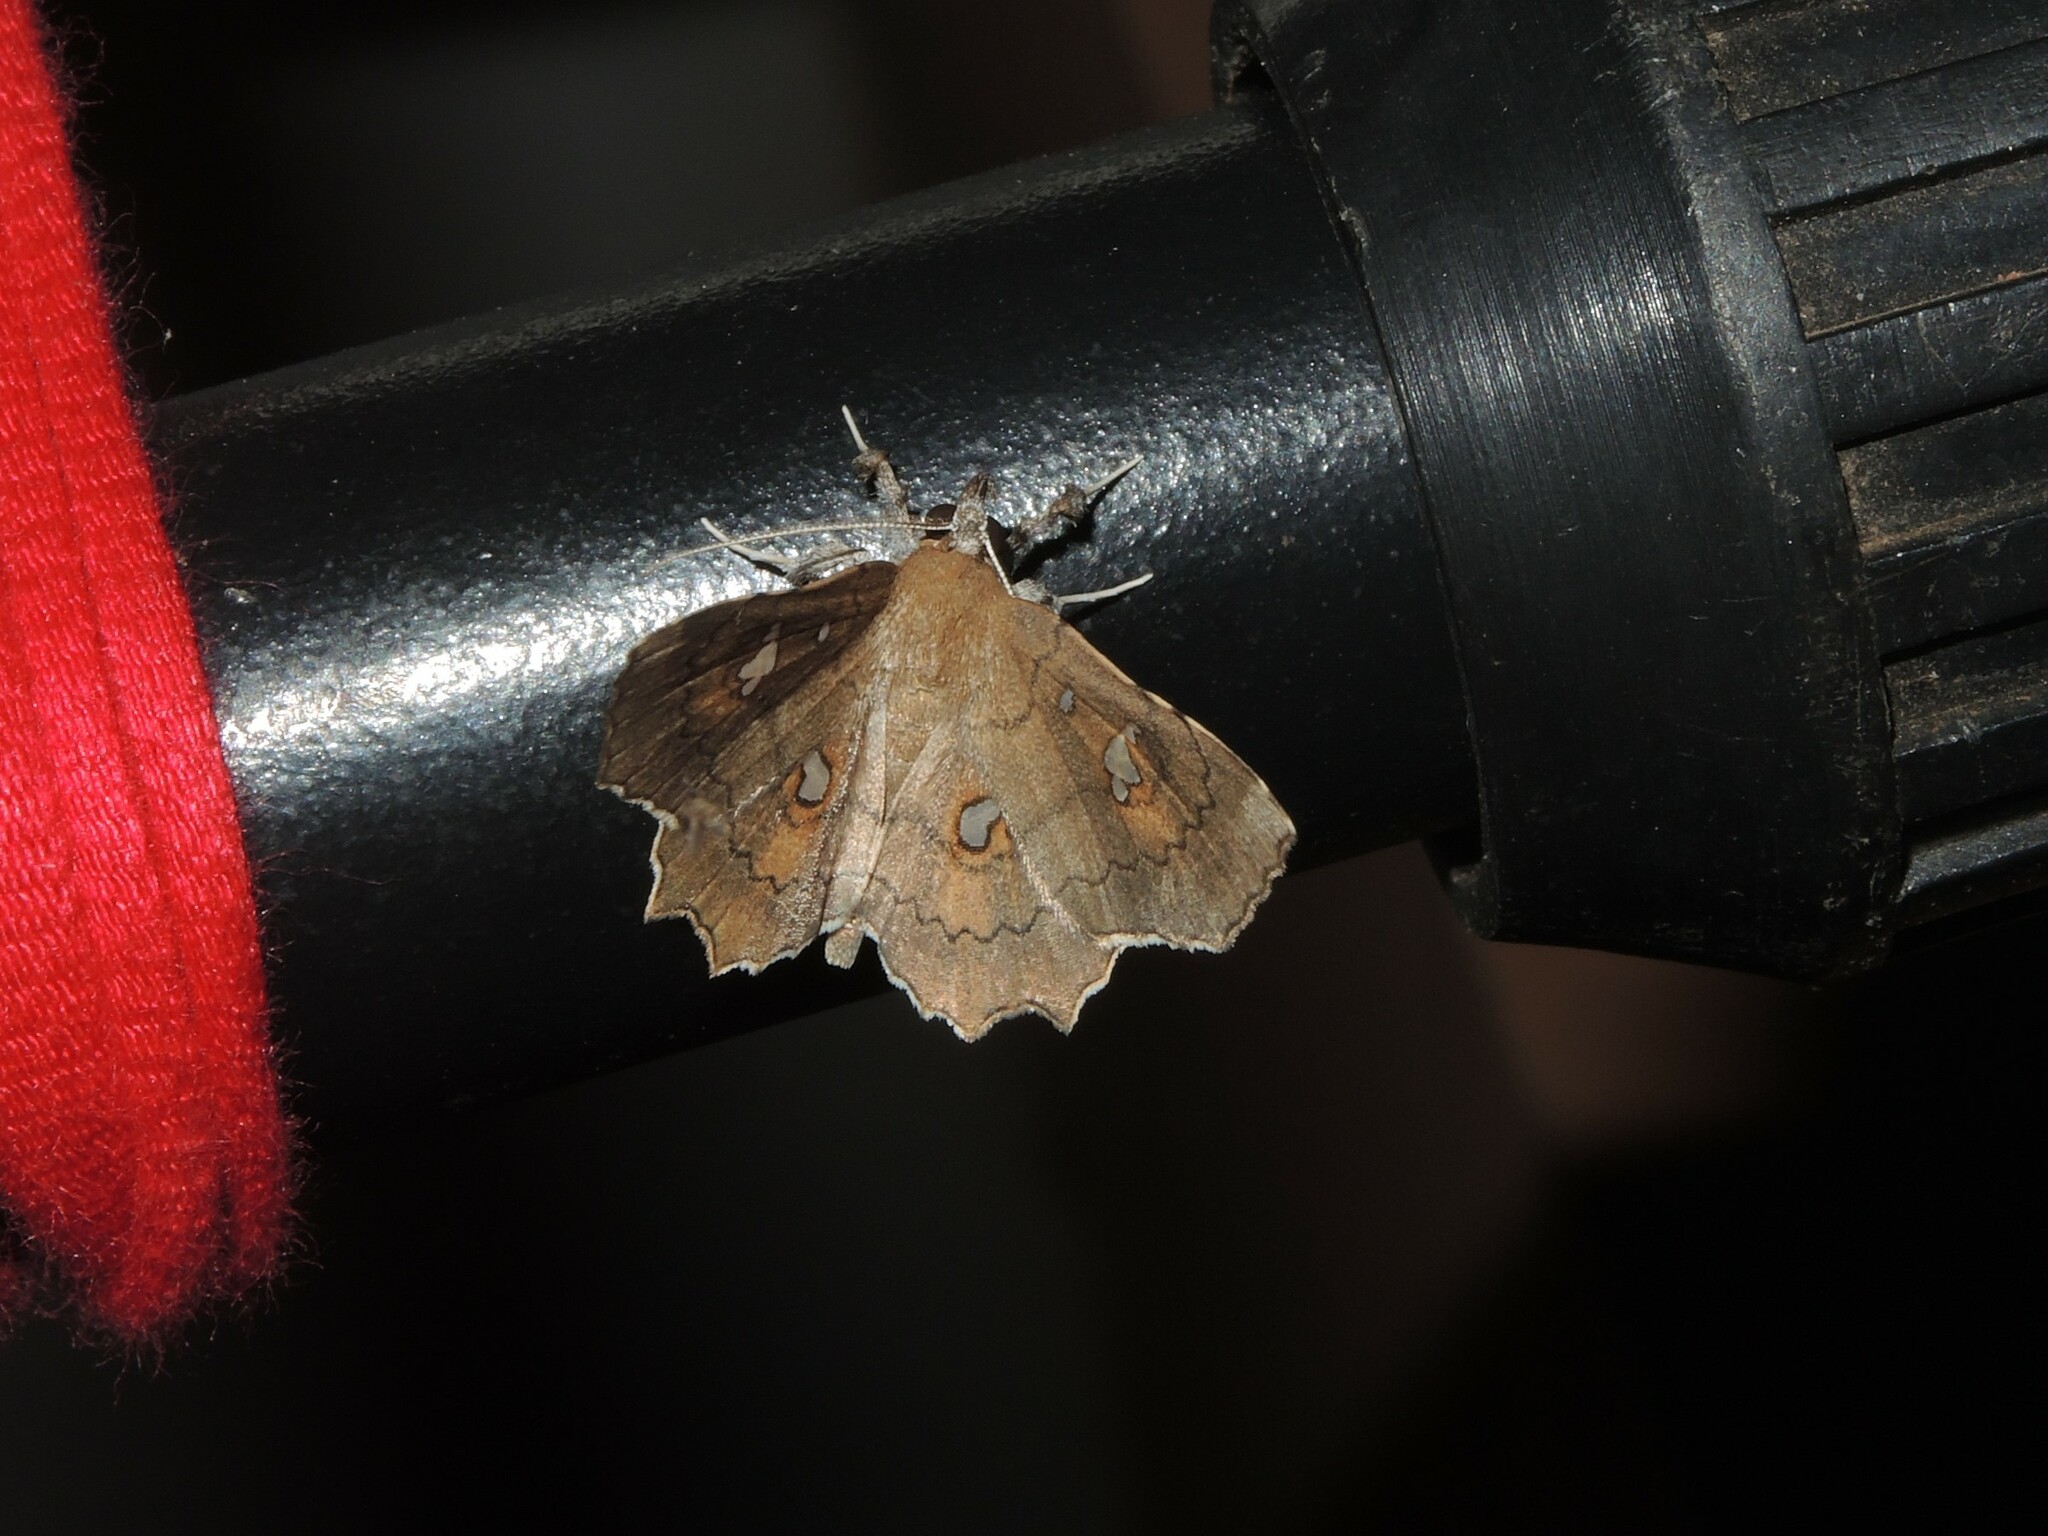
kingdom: Animalia
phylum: Arthropoda
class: Insecta
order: Lepidoptera
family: Erebidae
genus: Egnasia
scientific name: Egnasia ephyrodalis
